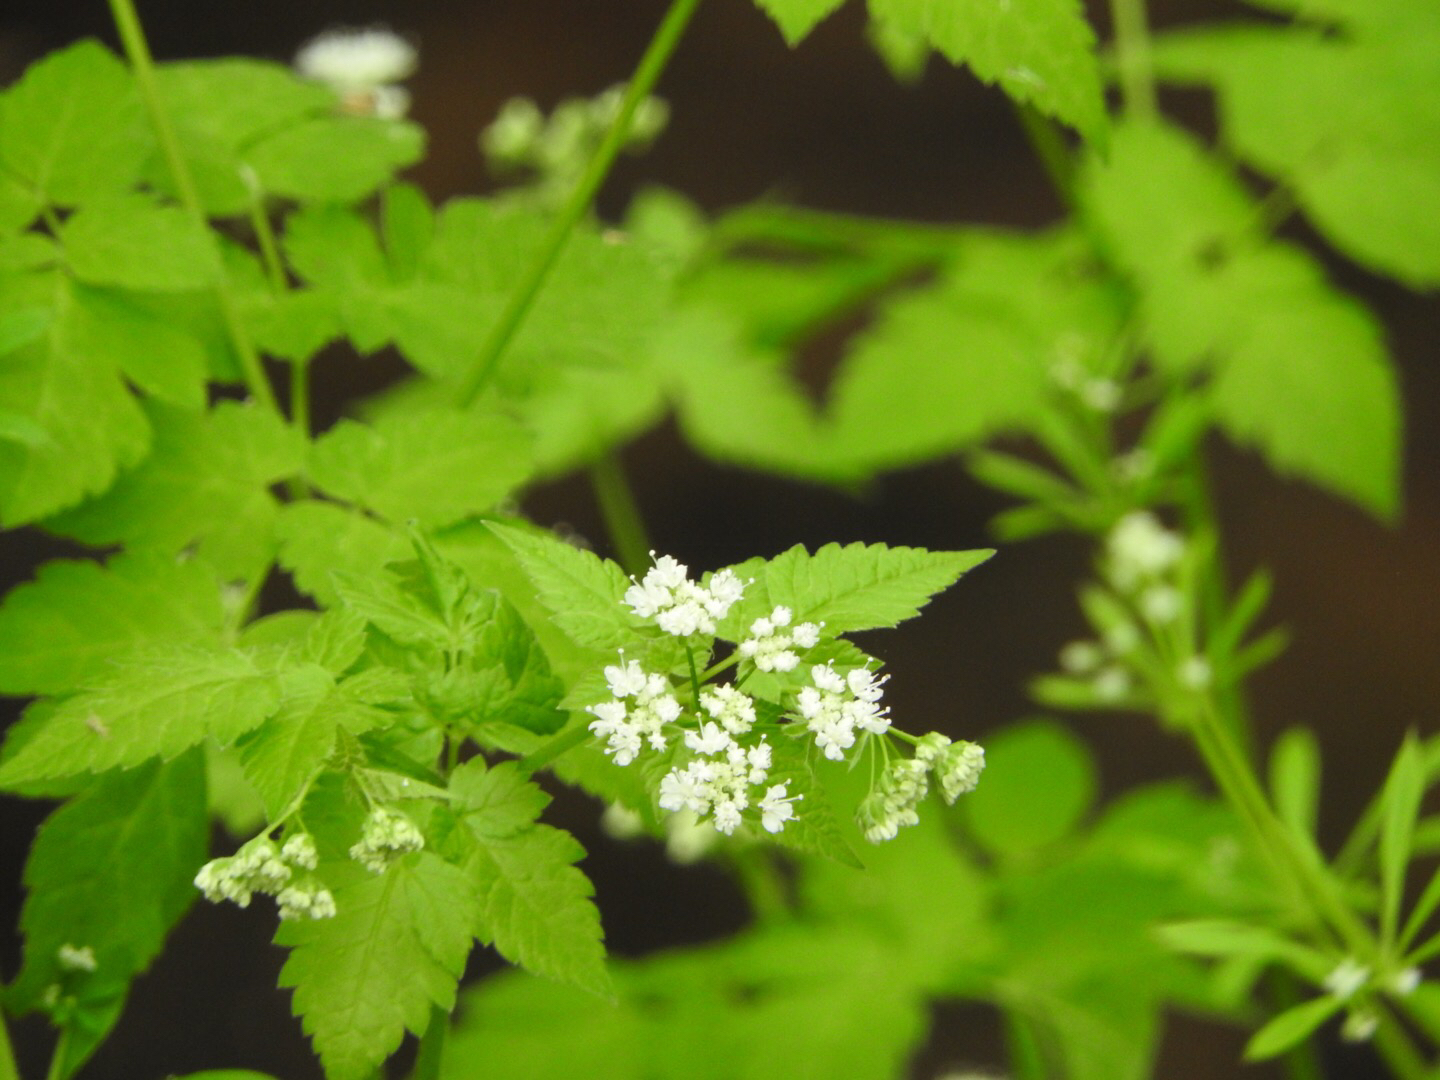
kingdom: Plantae
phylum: Tracheophyta
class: Magnoliopsida
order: Apiales
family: Apiaceae
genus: Osmorhiza
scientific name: Osmorhiza longistylis
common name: Smooth sweet cicely
